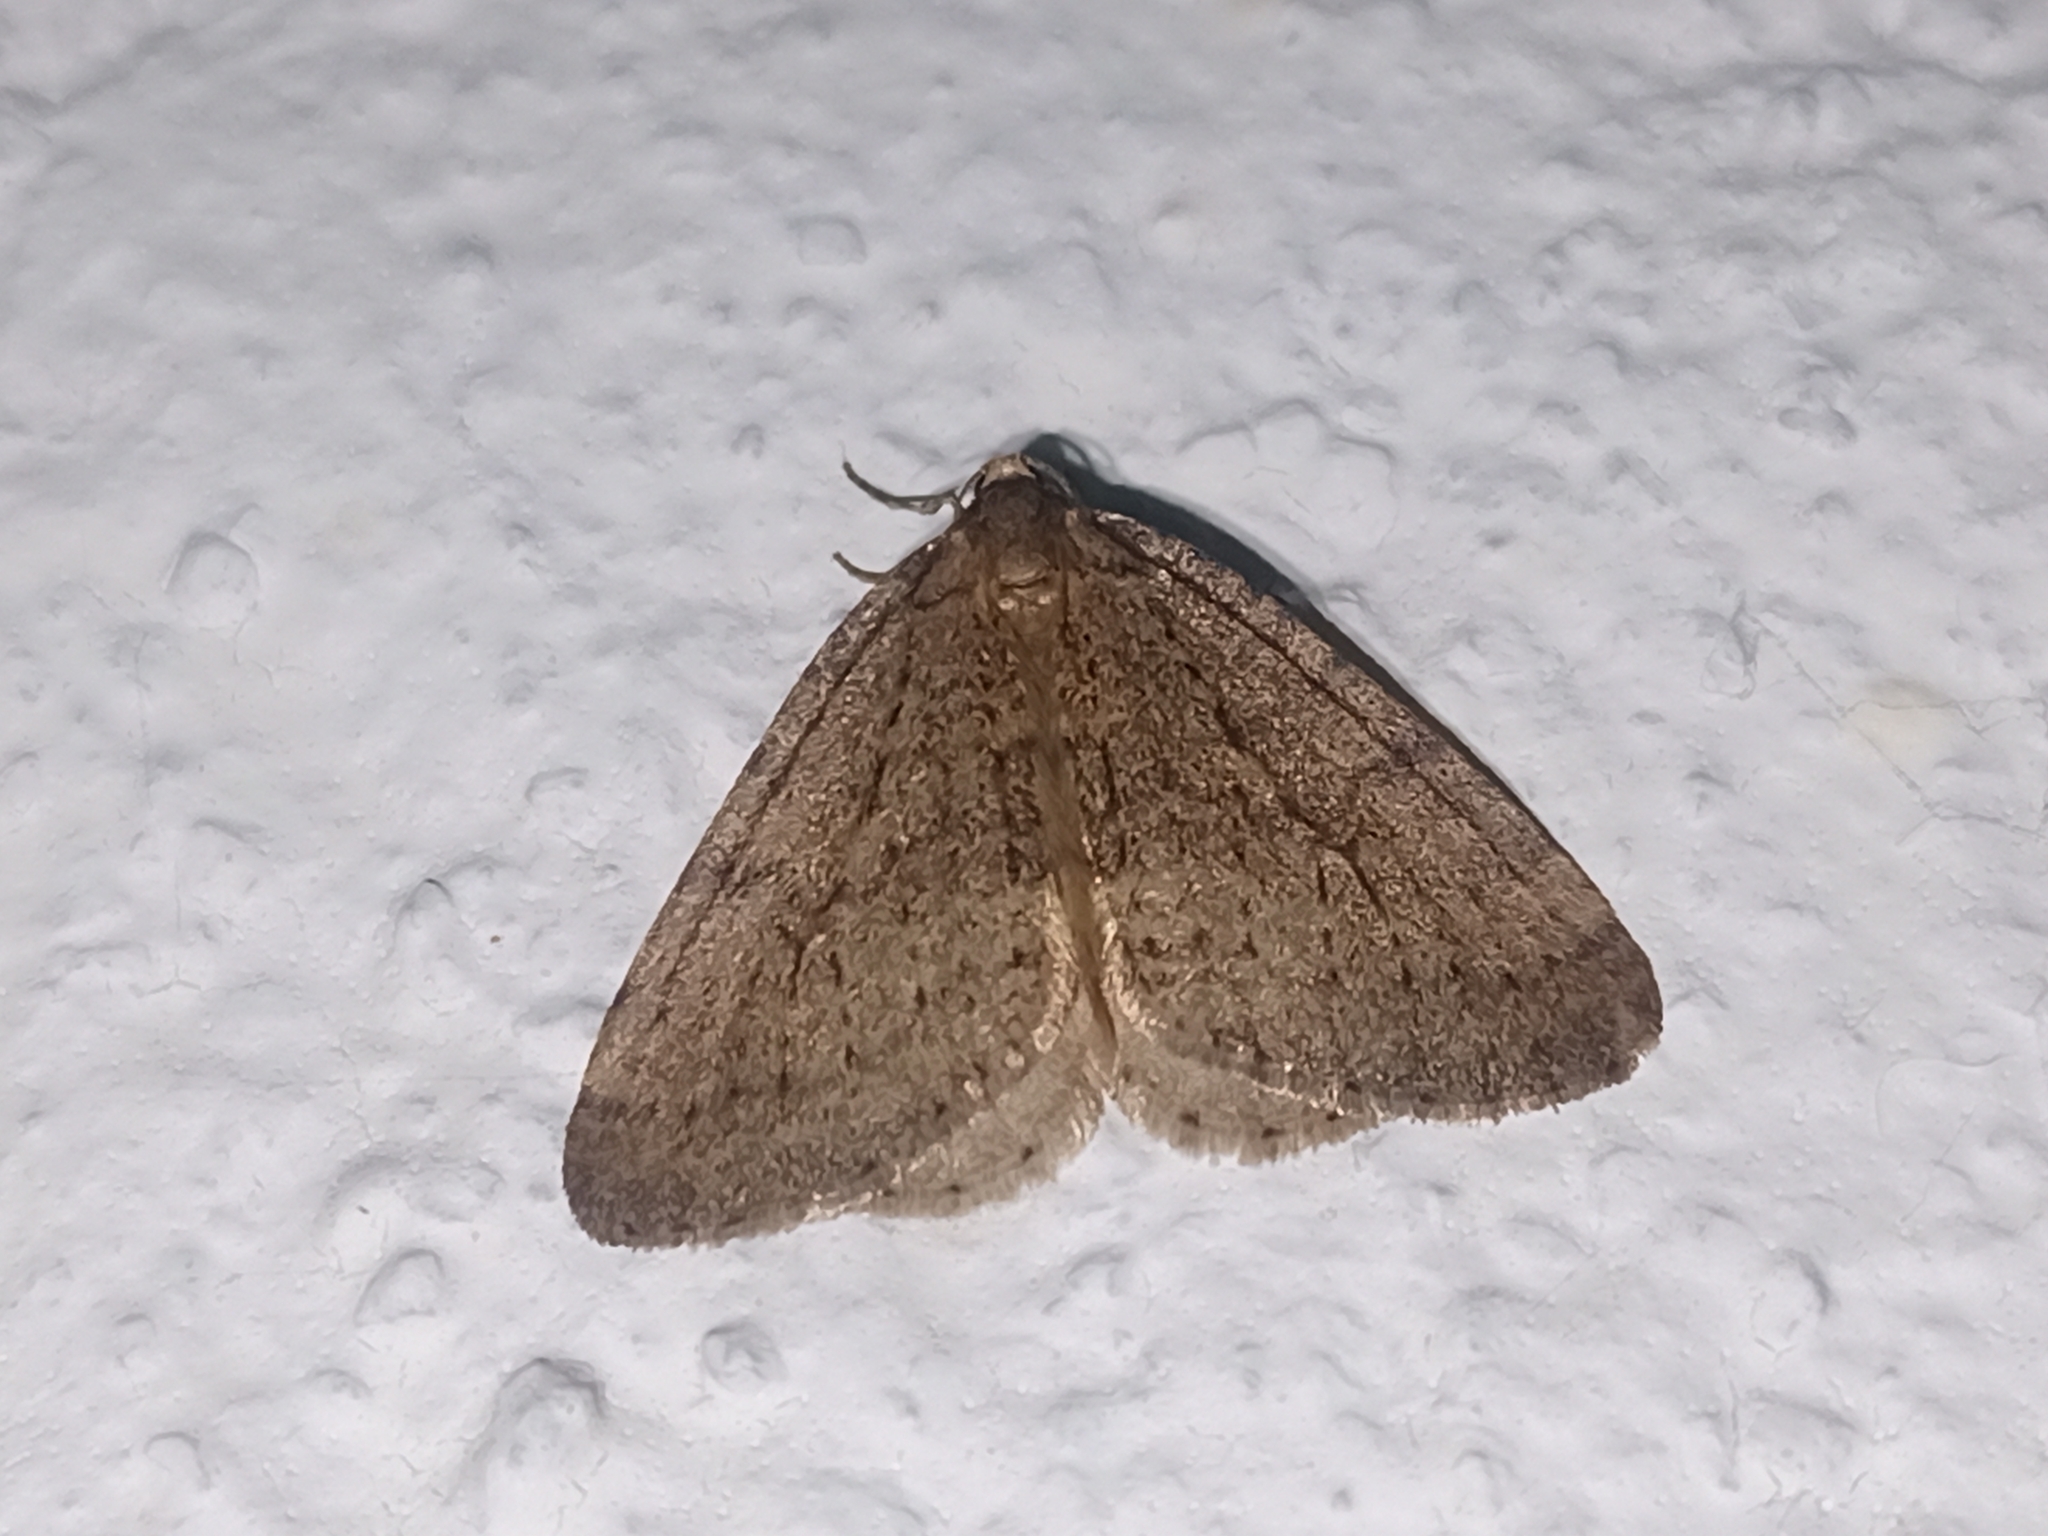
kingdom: Animalia
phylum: Arthropoda
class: Insecta
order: Lepidoptera
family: Geometridae
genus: Operophtera
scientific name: Operophtera brumata
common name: Winter moth
